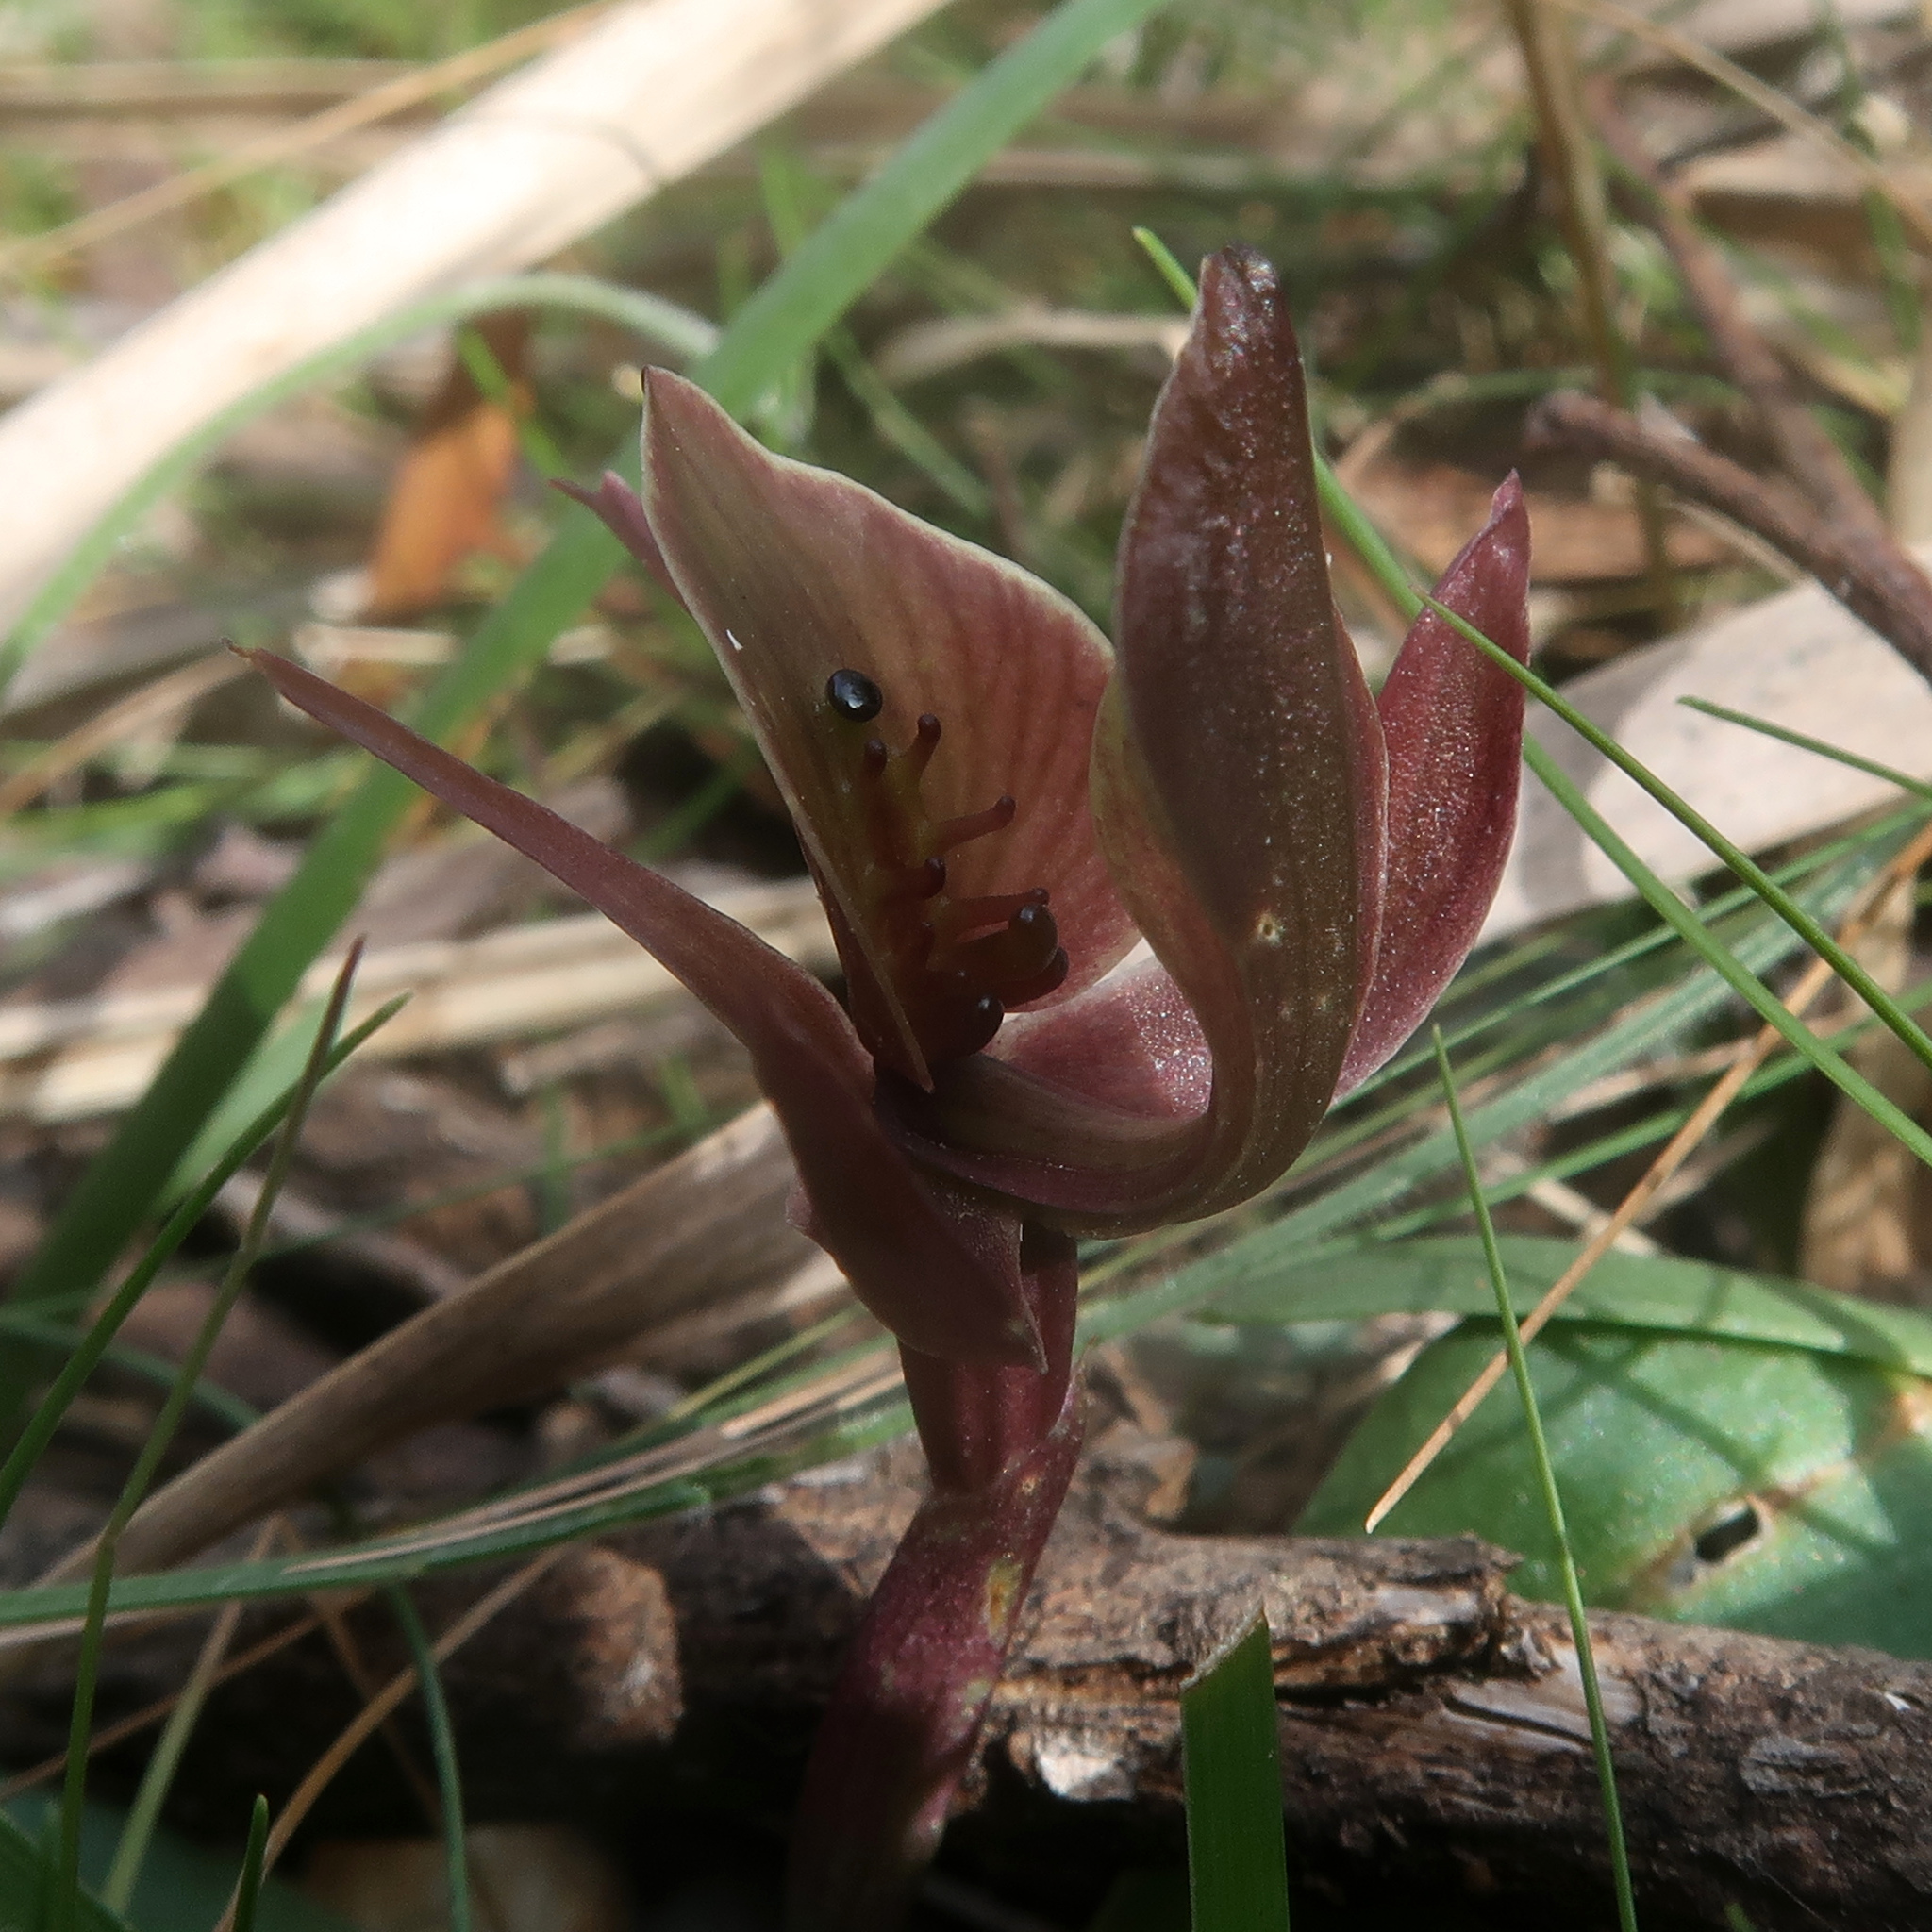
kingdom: Plantae
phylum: Tracheophyta
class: Liliopsida
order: Asparagales
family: Orchidaceae
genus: Chiloglottis
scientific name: Chiloglottis triceratops
